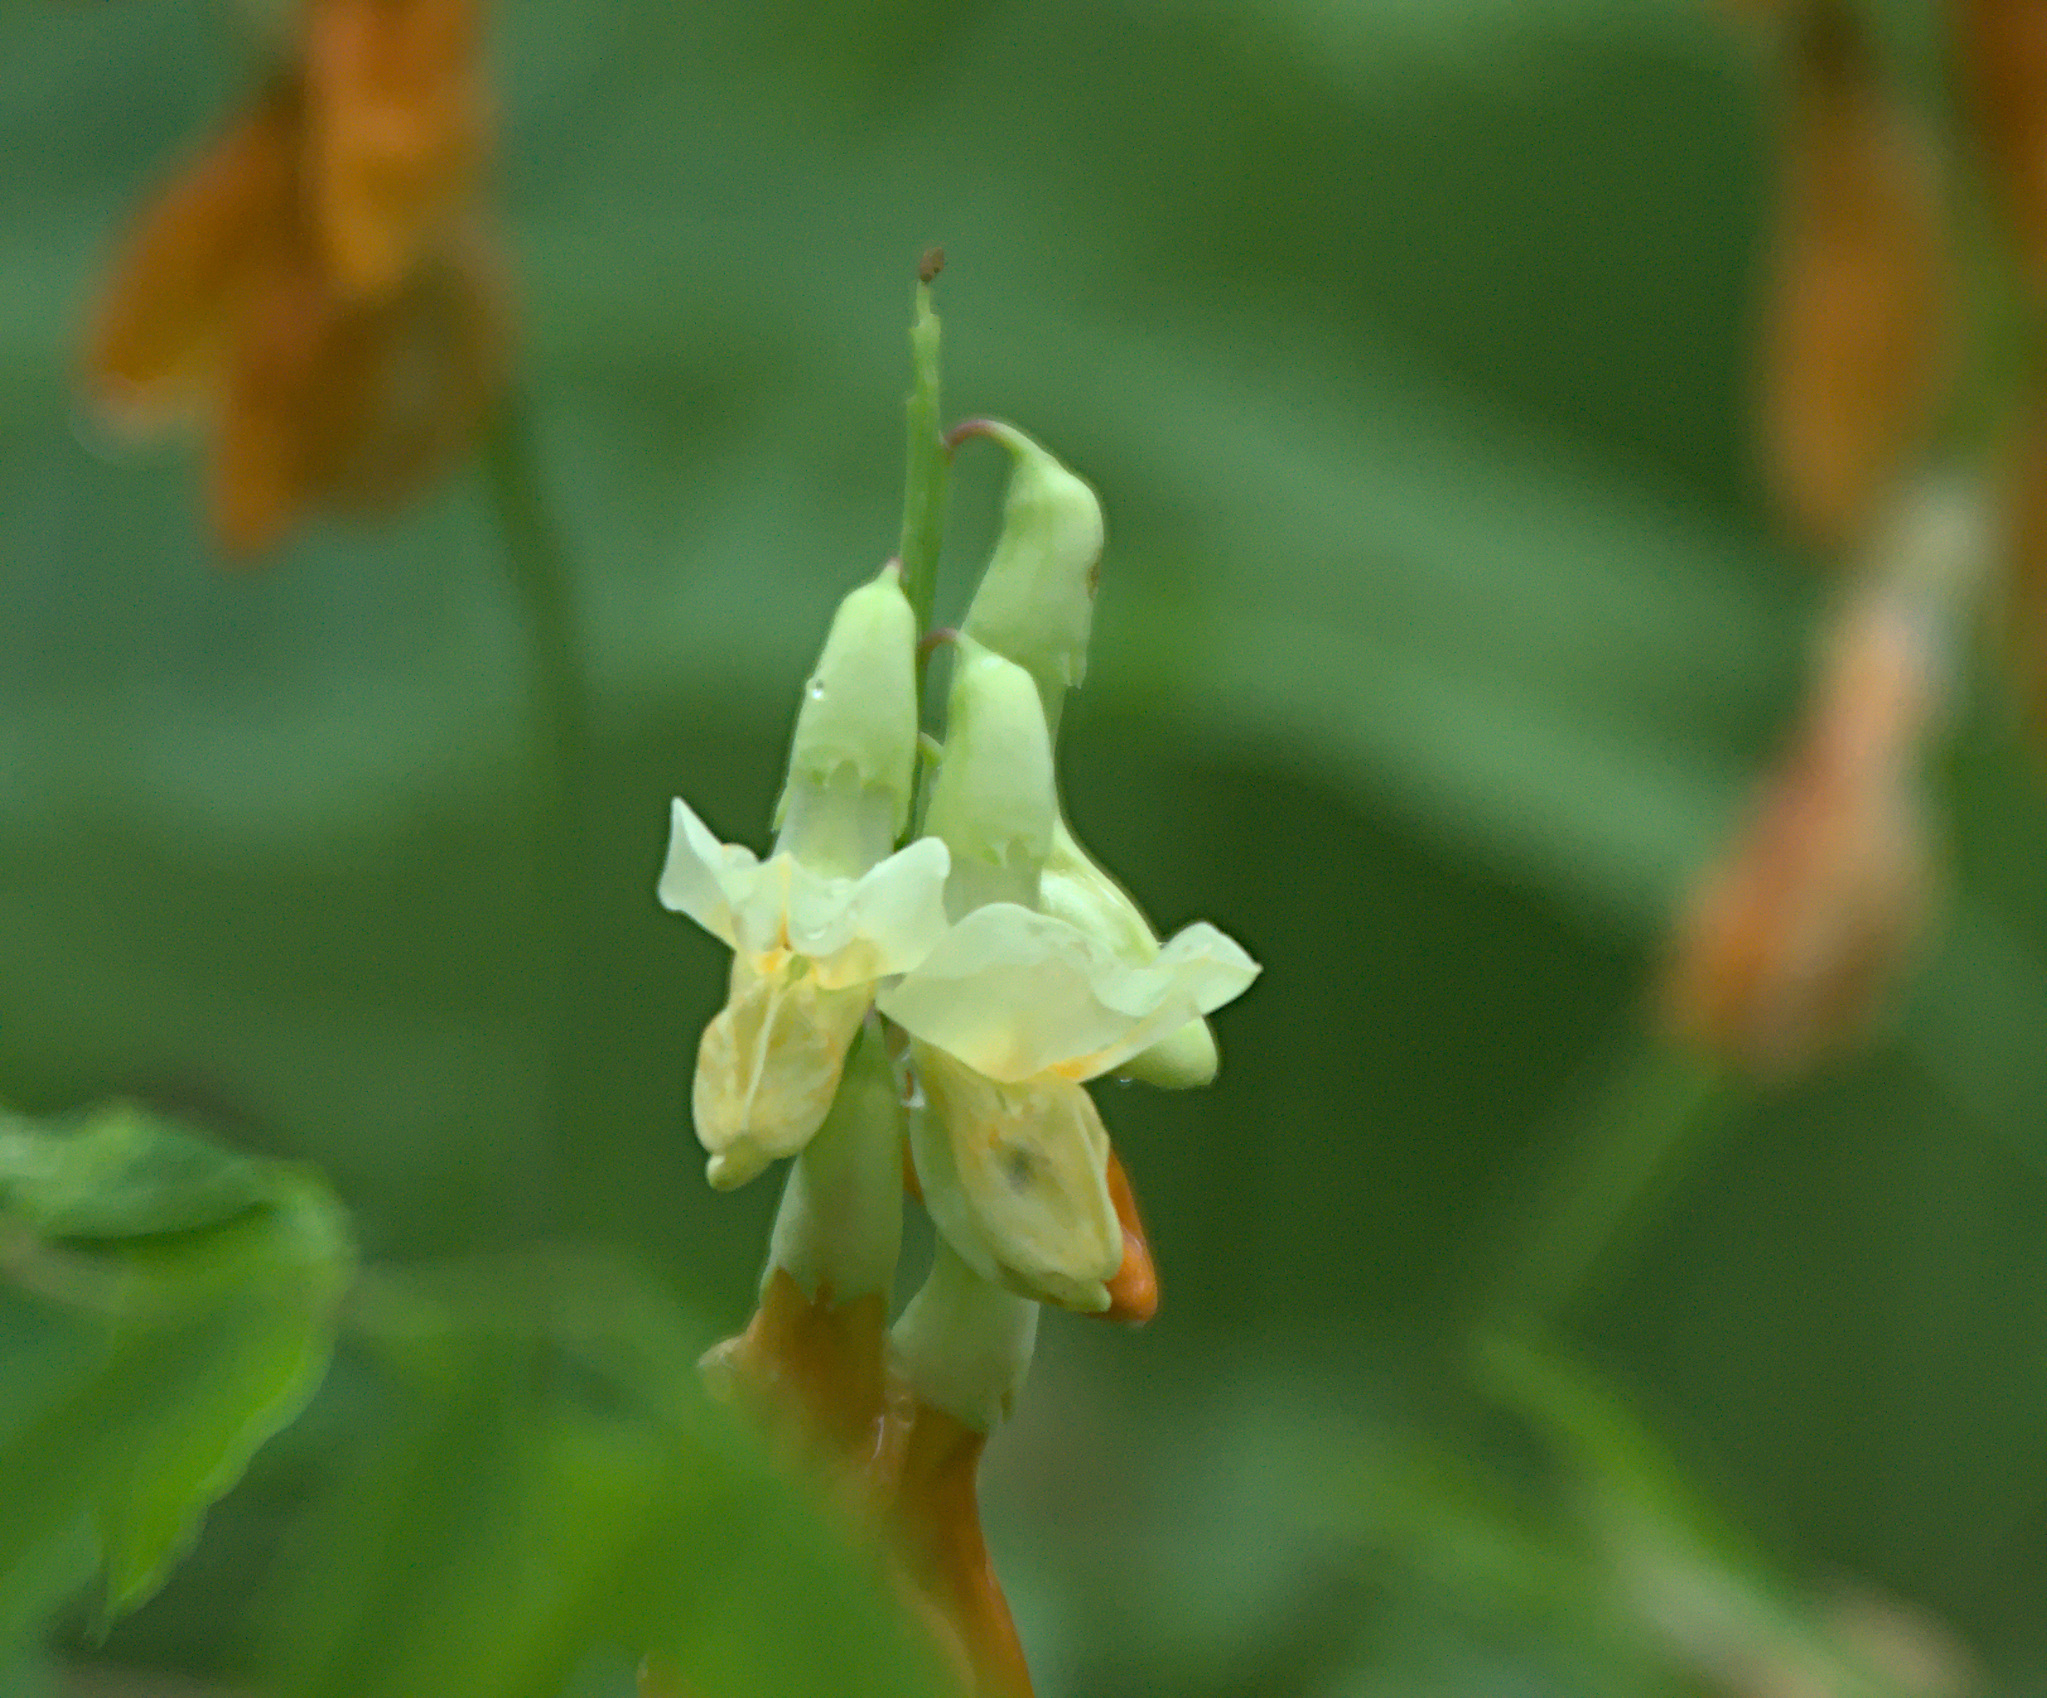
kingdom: Plantae
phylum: Tracheophyta
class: Magnoliopsida
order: Fabales
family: Fabaceae
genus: Lathyrus
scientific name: Lathyrus gmelinii
